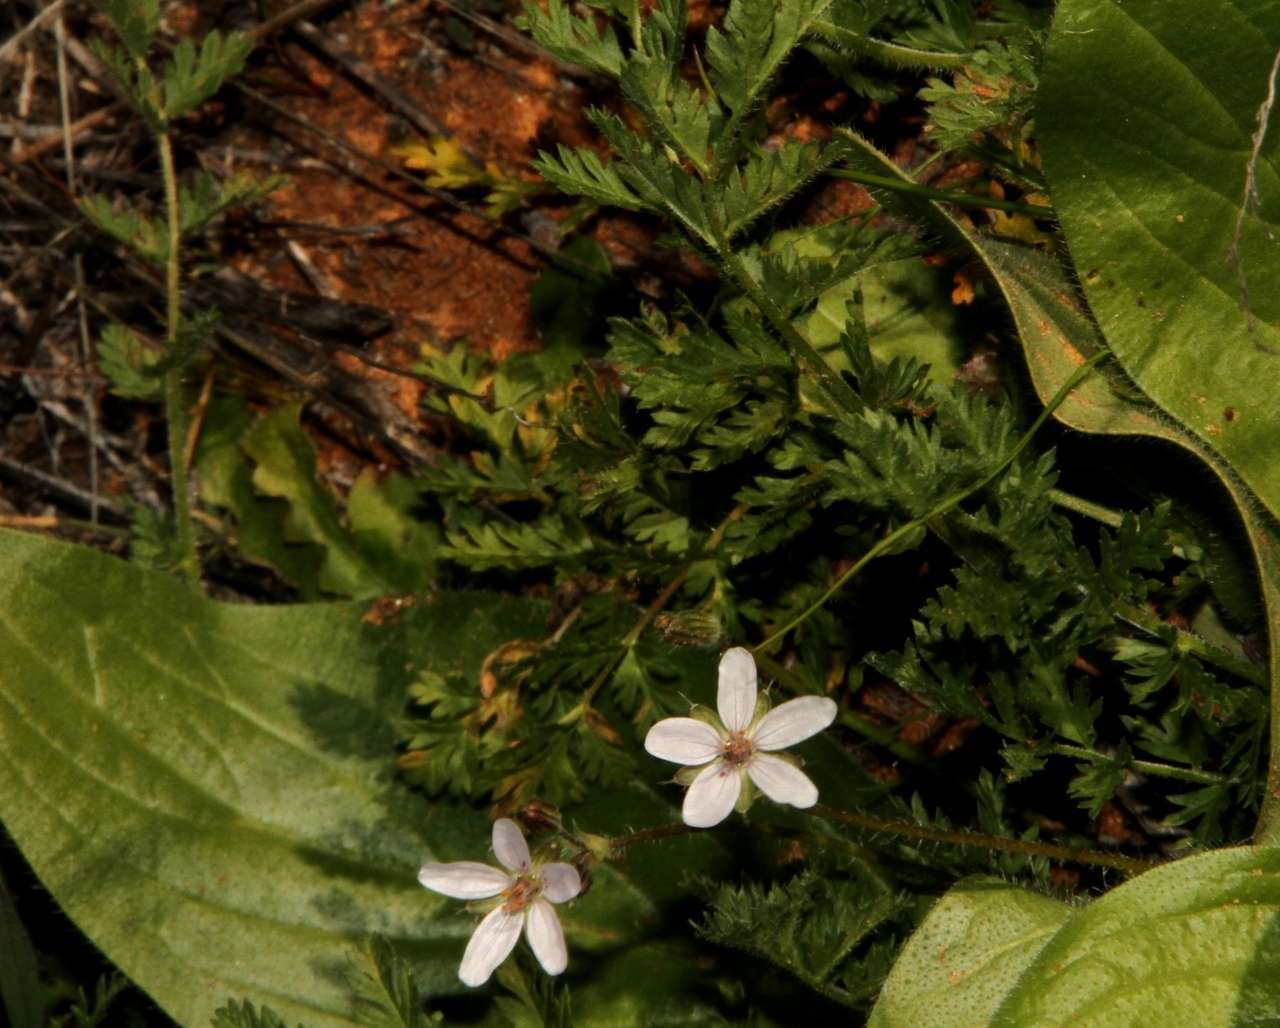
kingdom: Plantae
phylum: Tracheophyta
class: Magnoliopsida
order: Geraniales
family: Geraniaceae
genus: Erodium
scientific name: Erodium cicutarium
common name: Common stork's-bill
